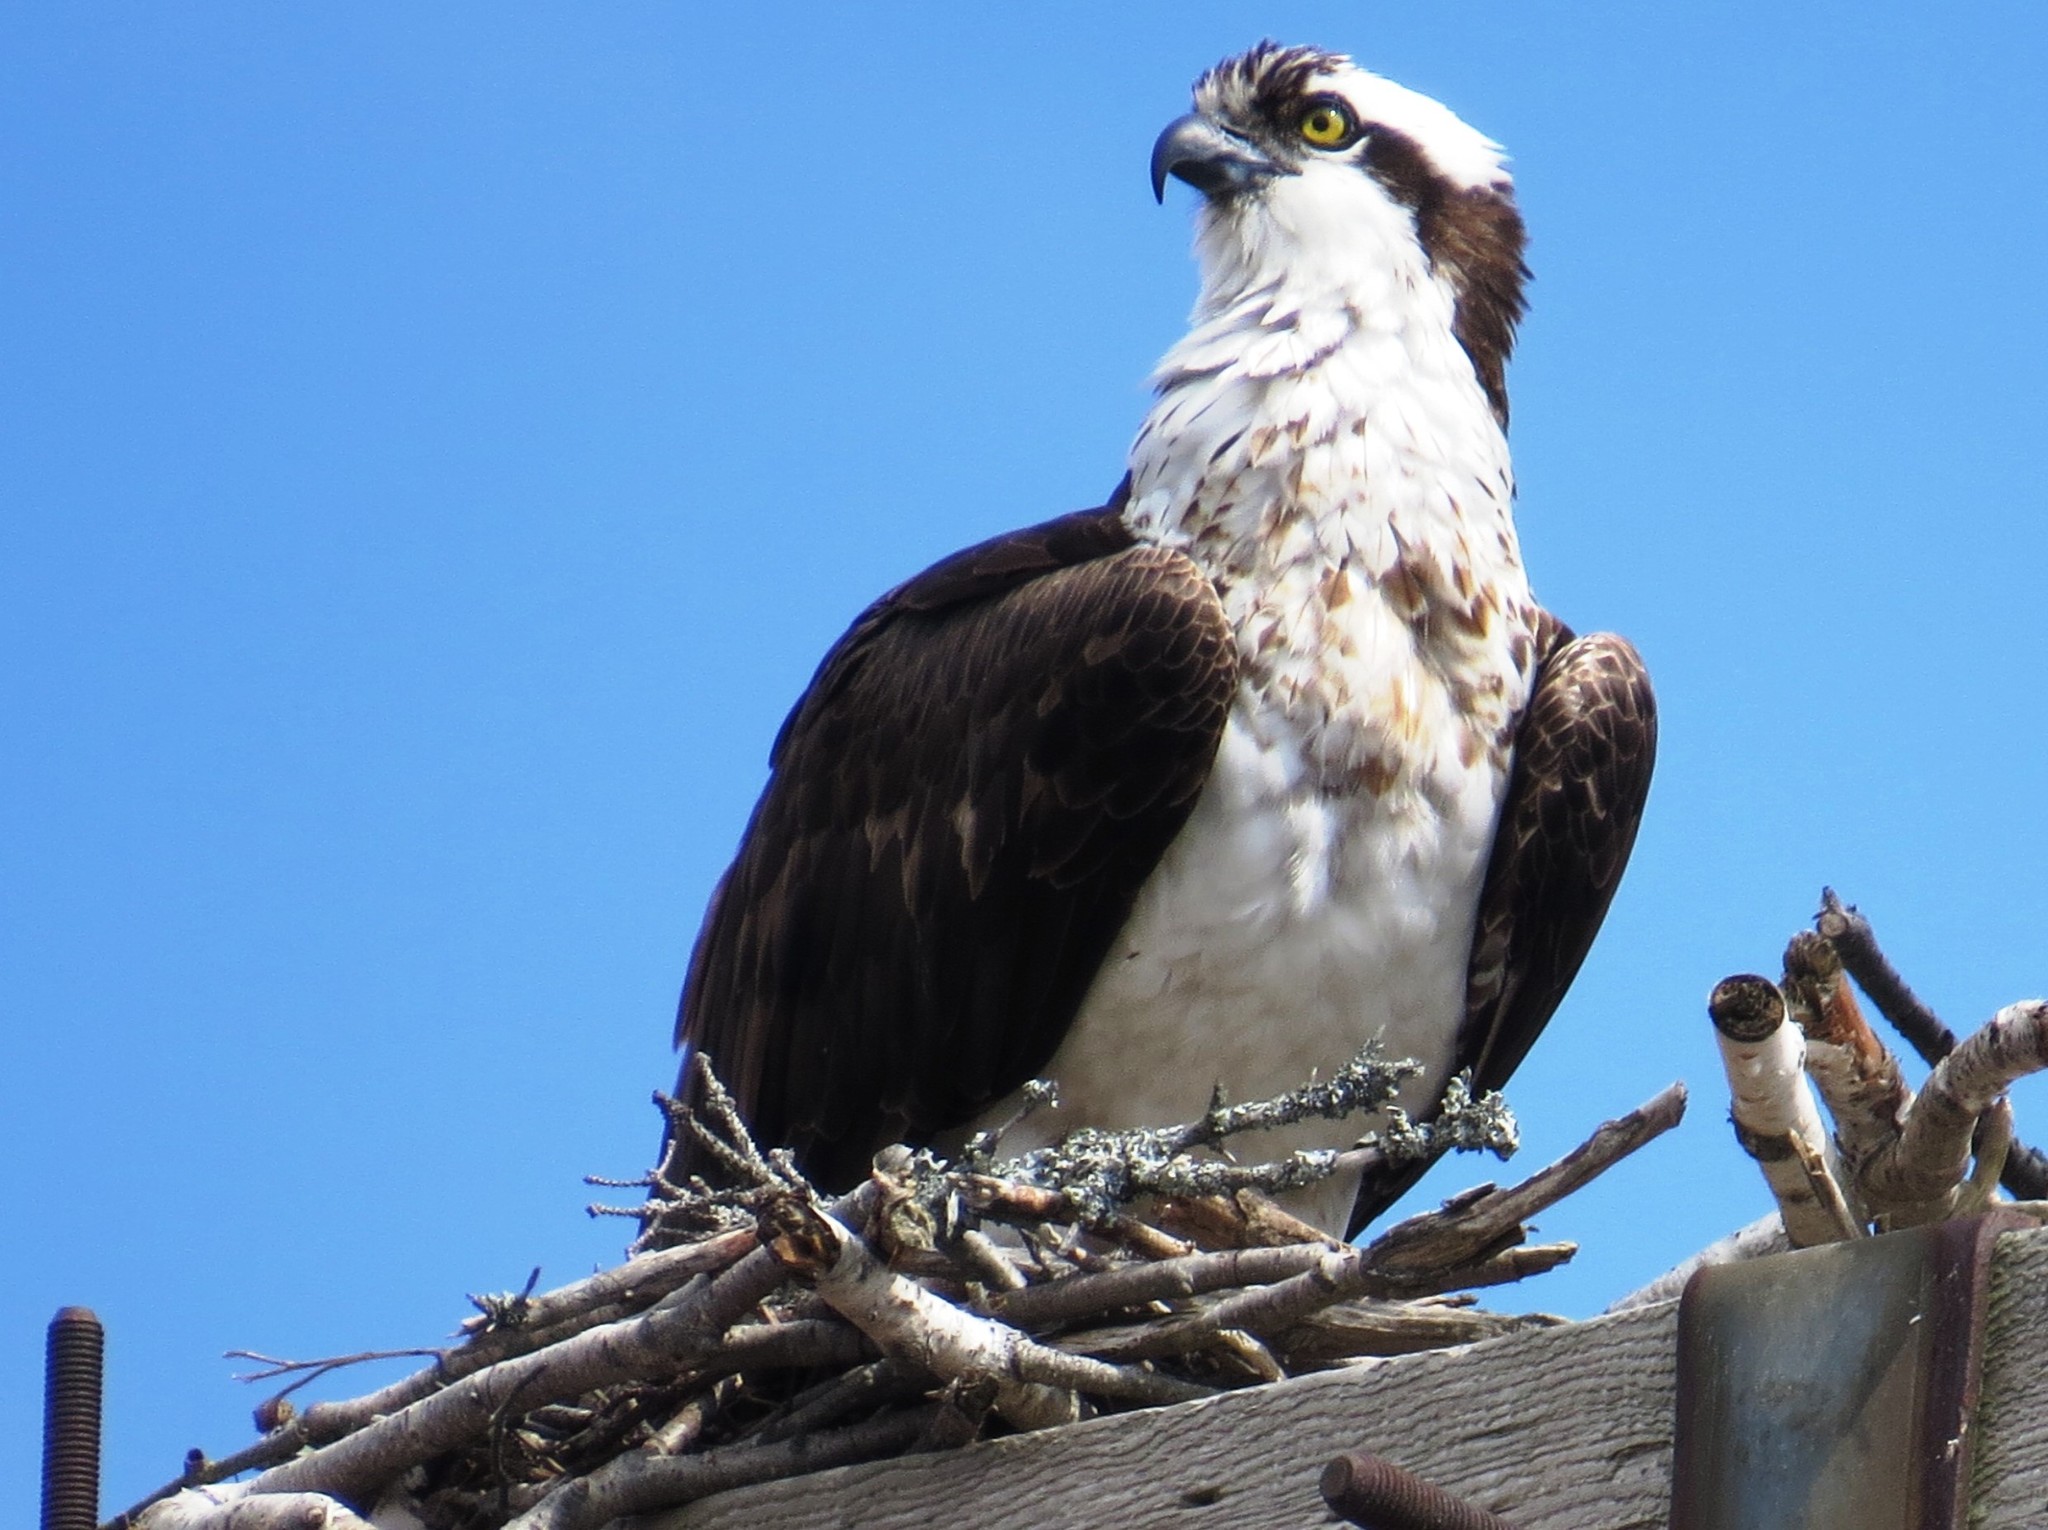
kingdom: Animalia
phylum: Chordata
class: Aves
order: Accipitriformes
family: Pandionidae
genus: Pandion
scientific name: Pandion haliaetus
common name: Osprey
